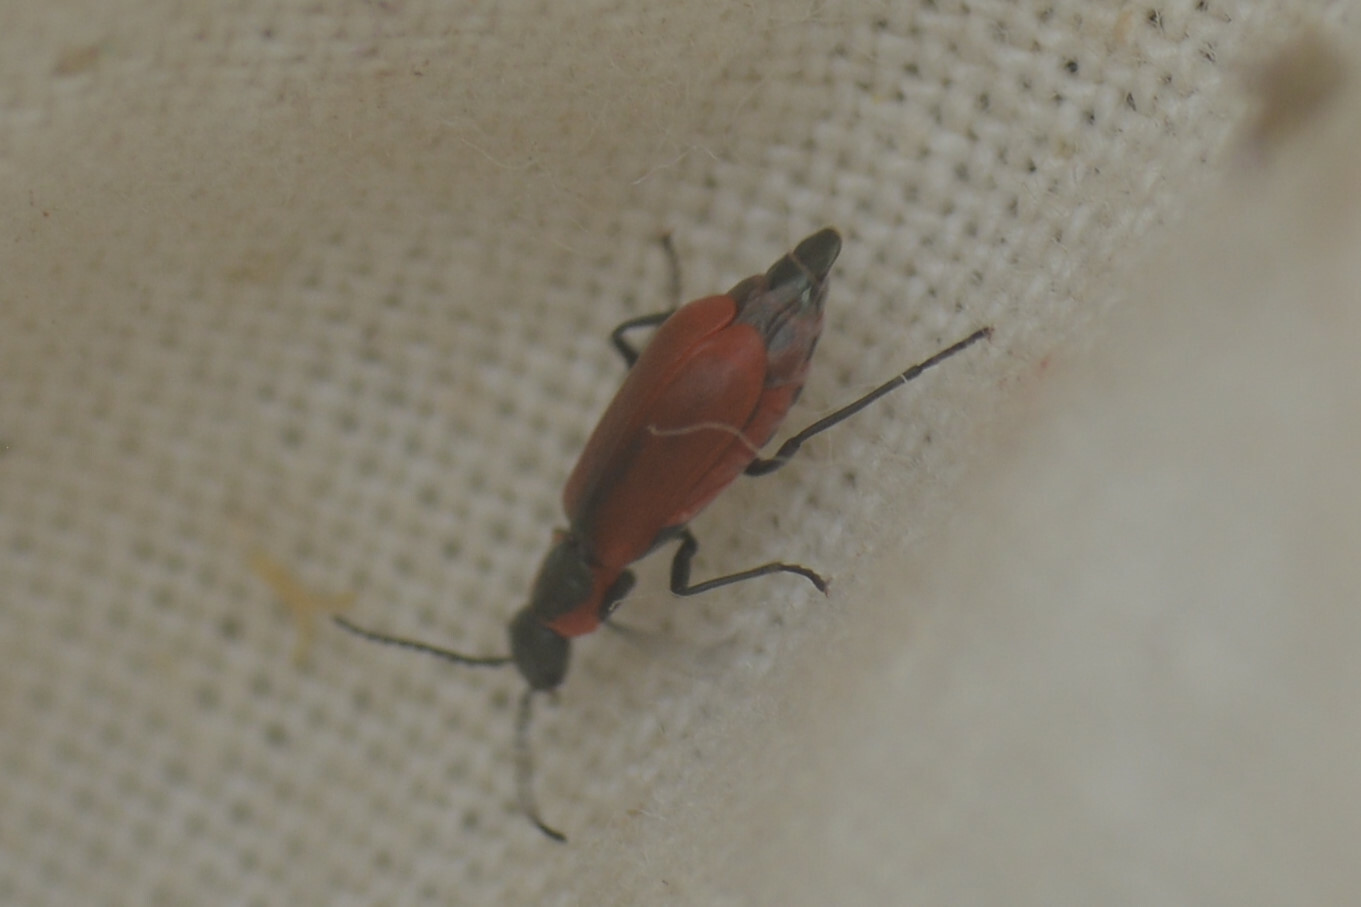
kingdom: Animalia
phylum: Arthropoda
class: Insecta
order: Coleoptera
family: Melyridae
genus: Anthocomus
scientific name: Anthocomus rufus
